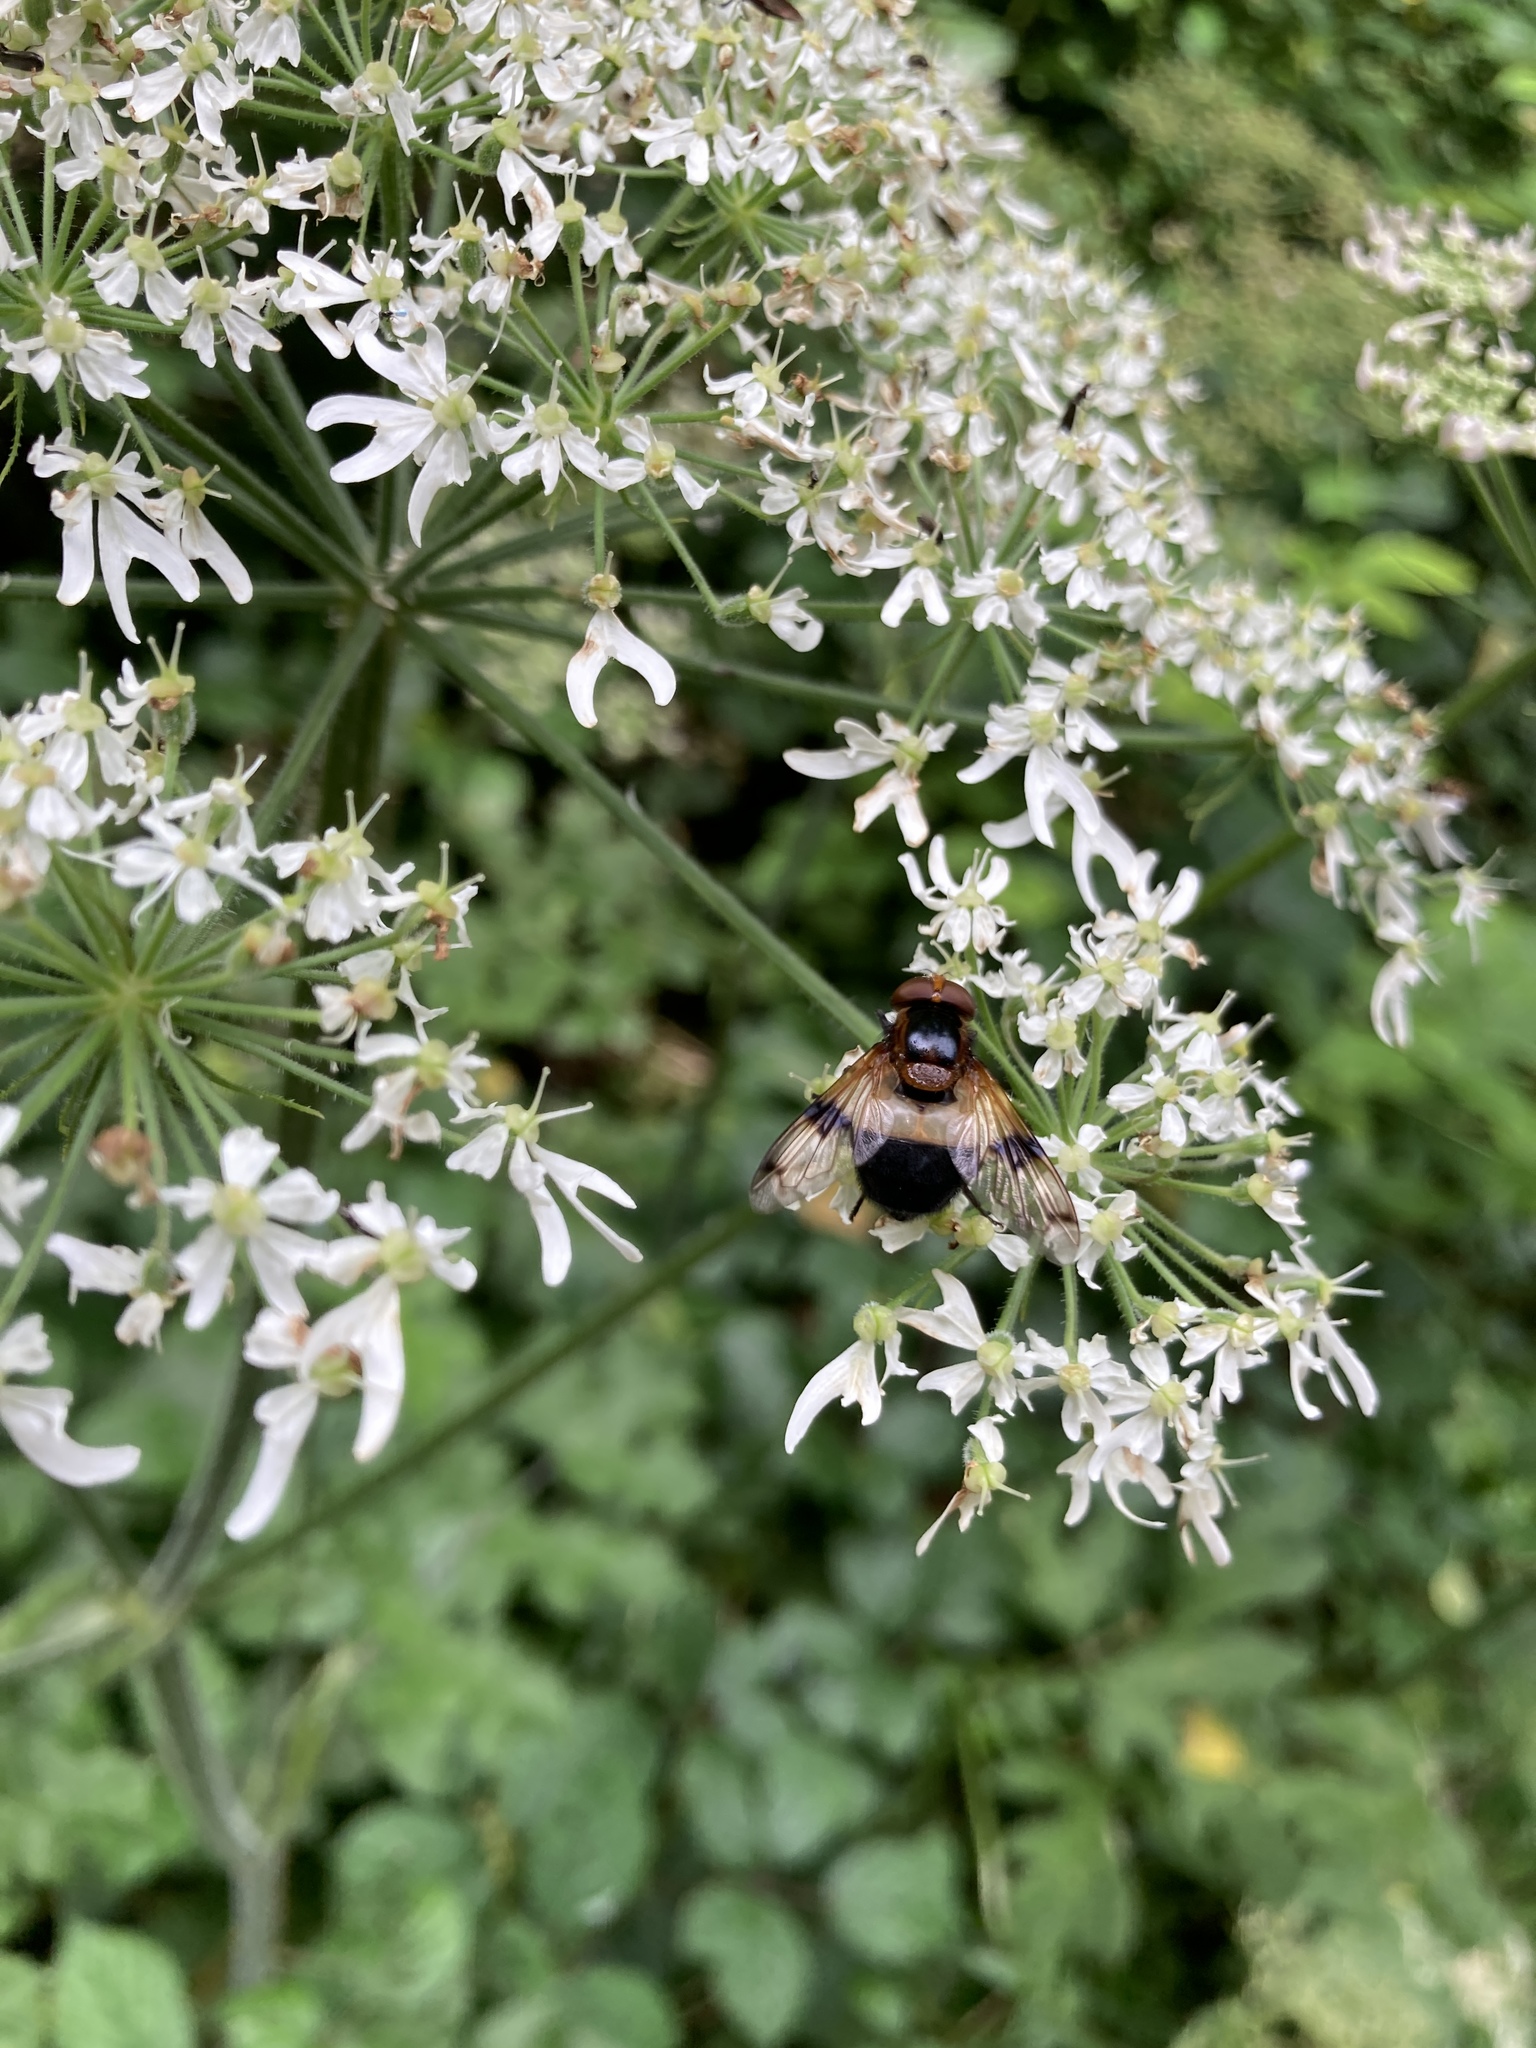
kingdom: Animalia
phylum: Arthropoda
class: Insecta
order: Diptera
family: Syrphidae
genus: Volucella
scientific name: Volucella pellucens
